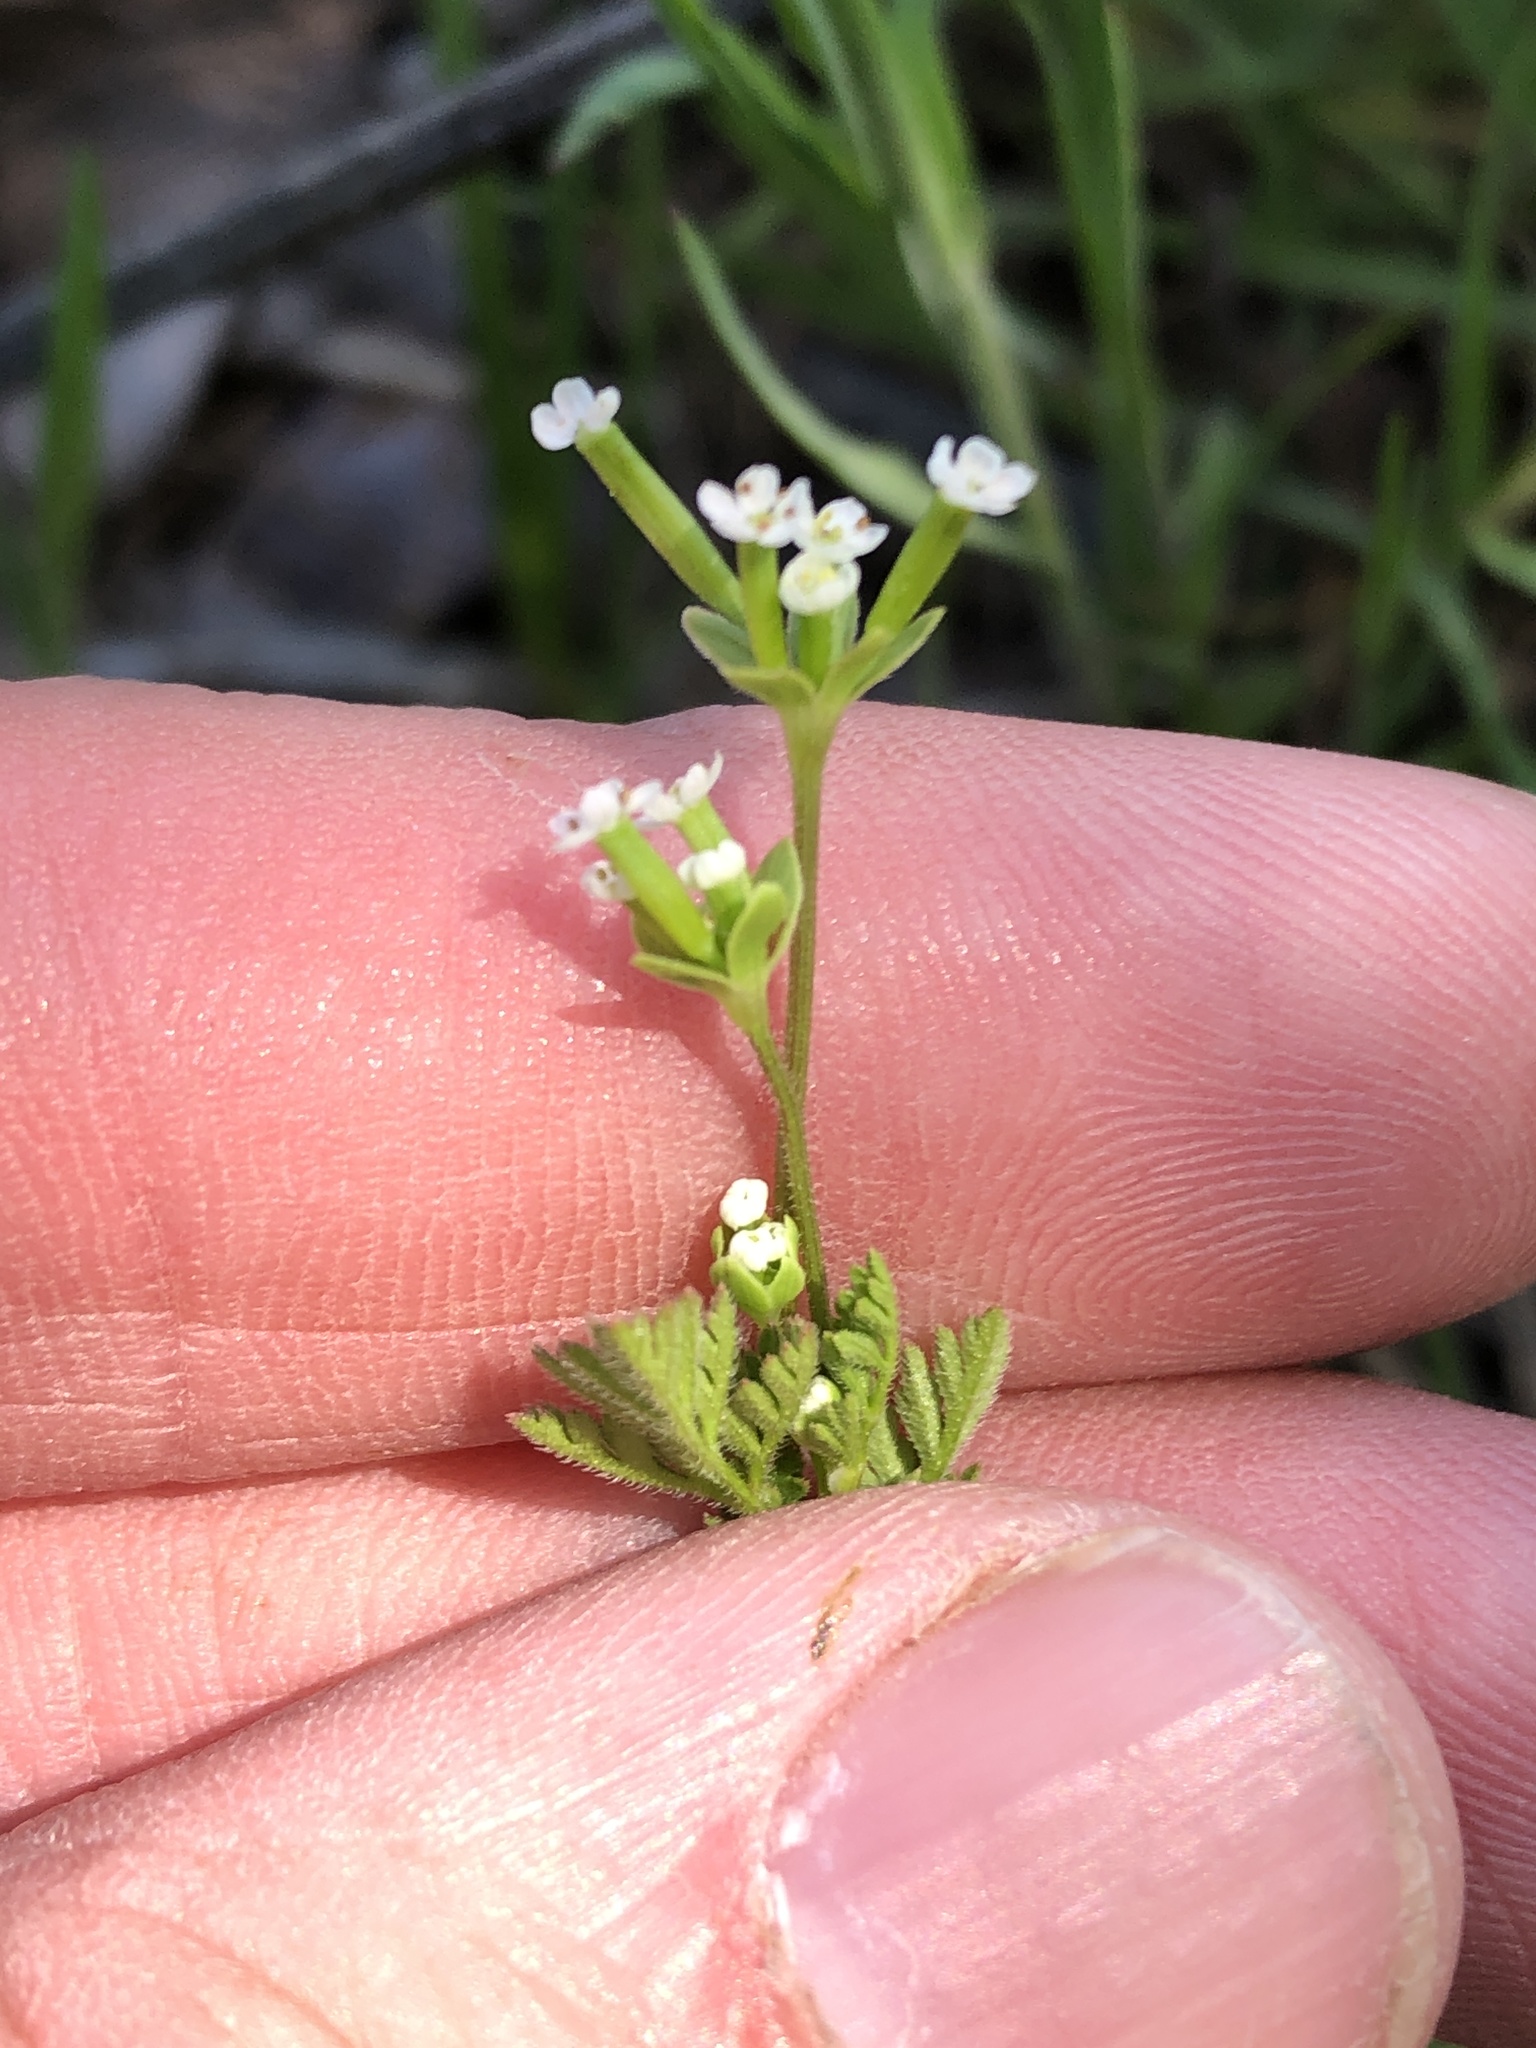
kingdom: Plantae
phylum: Tracheophyta
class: Magnoliopsida
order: Apiales
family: Apiaceae
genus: Chaerophyllum
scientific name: Chaerophyllum tainturieri
